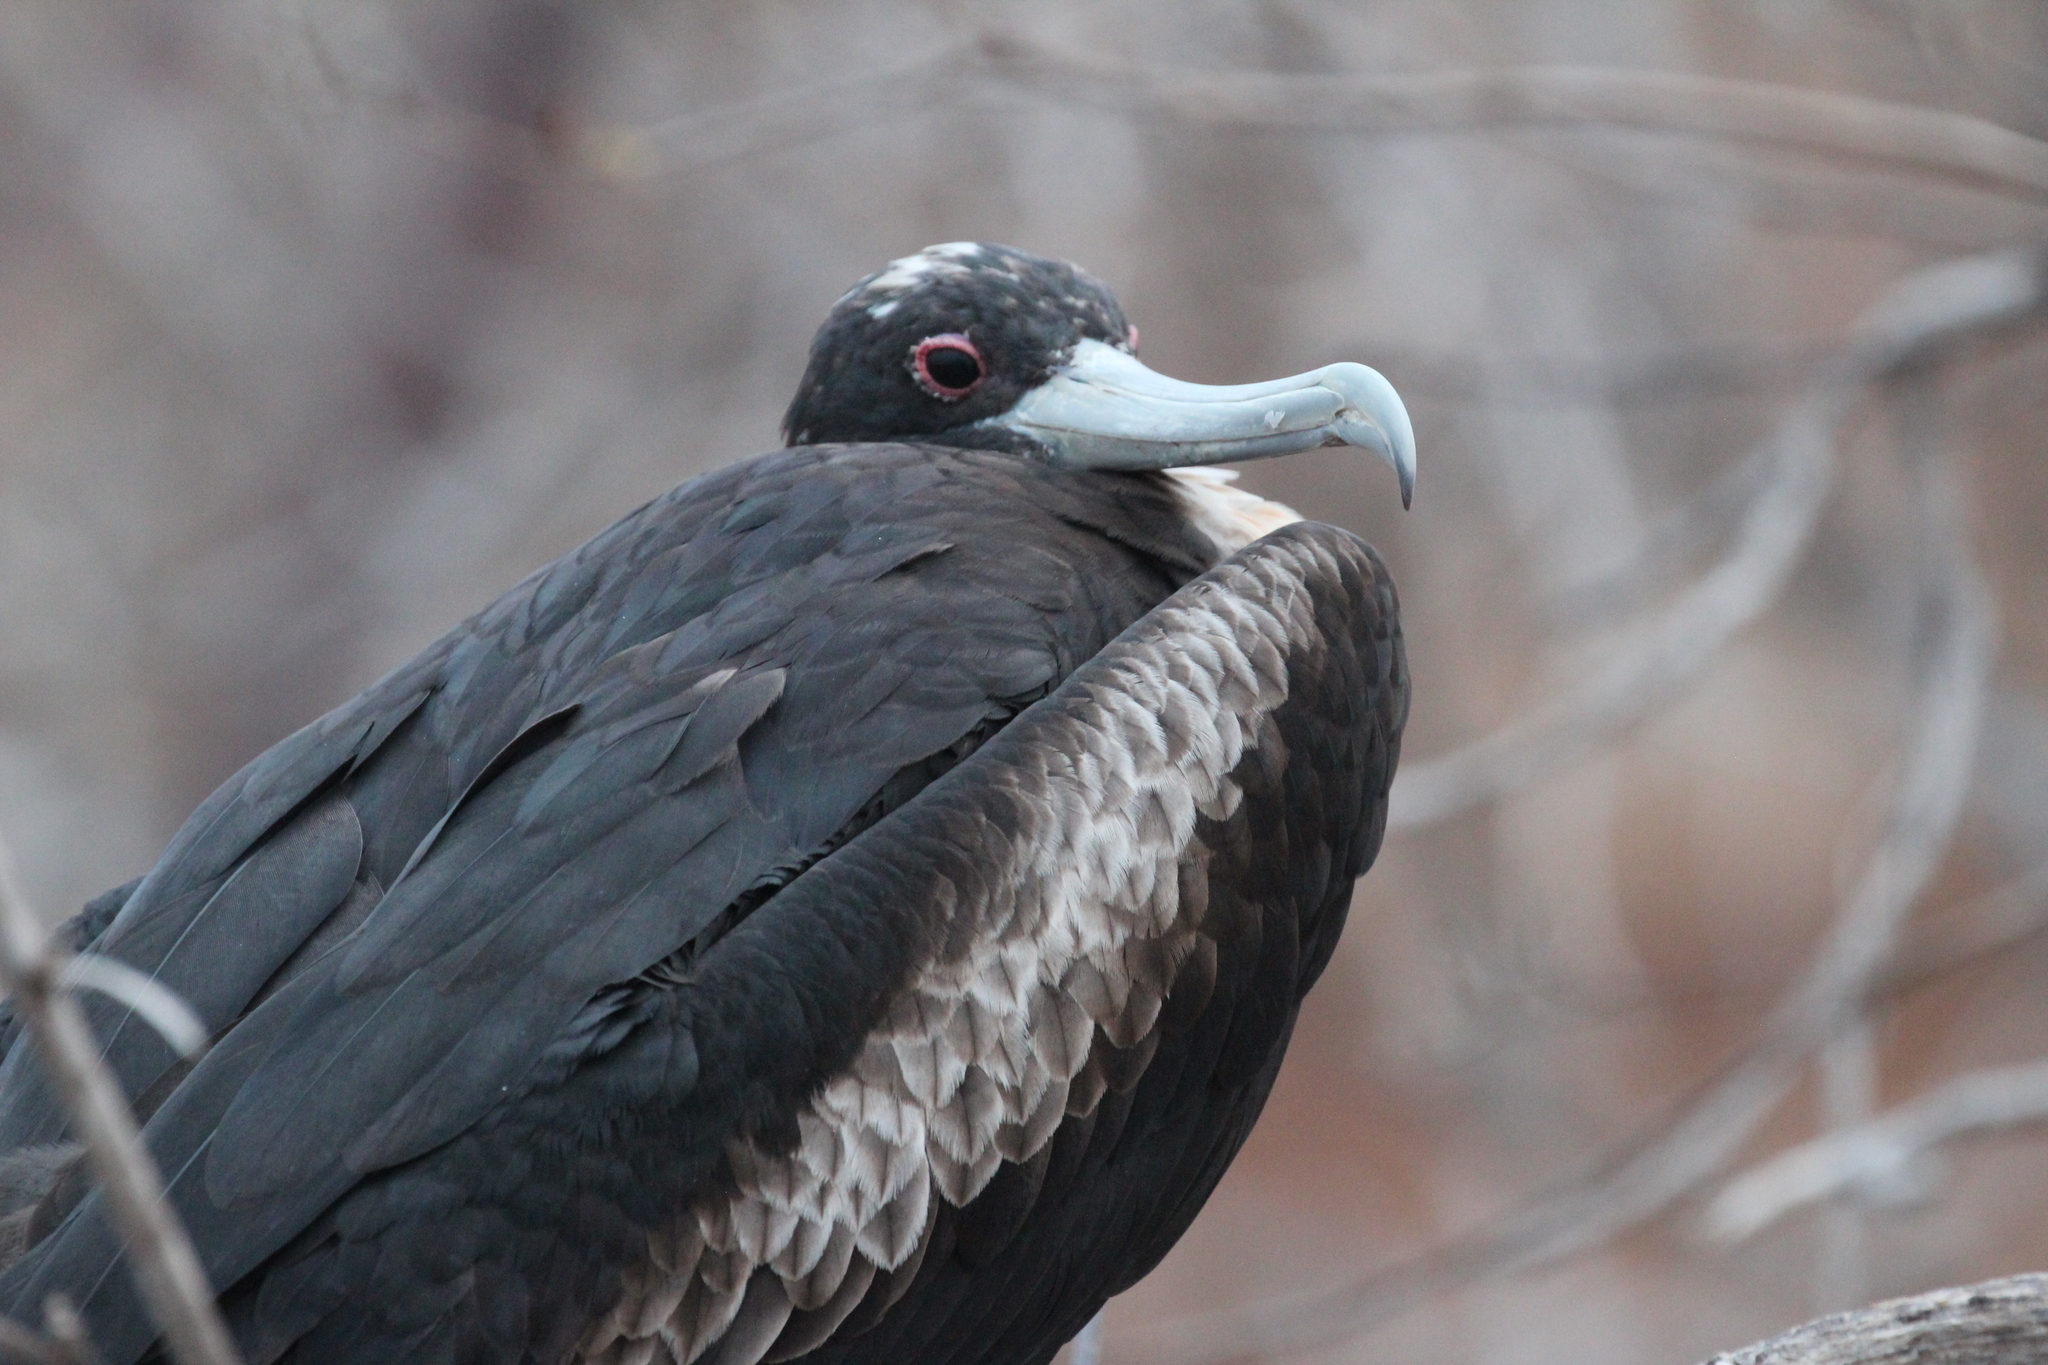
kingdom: Animalia
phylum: Chordata
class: Aves
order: Suliformes
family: Fregatidae
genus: Fregata
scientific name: Fregata minor
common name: Great frigatebird
